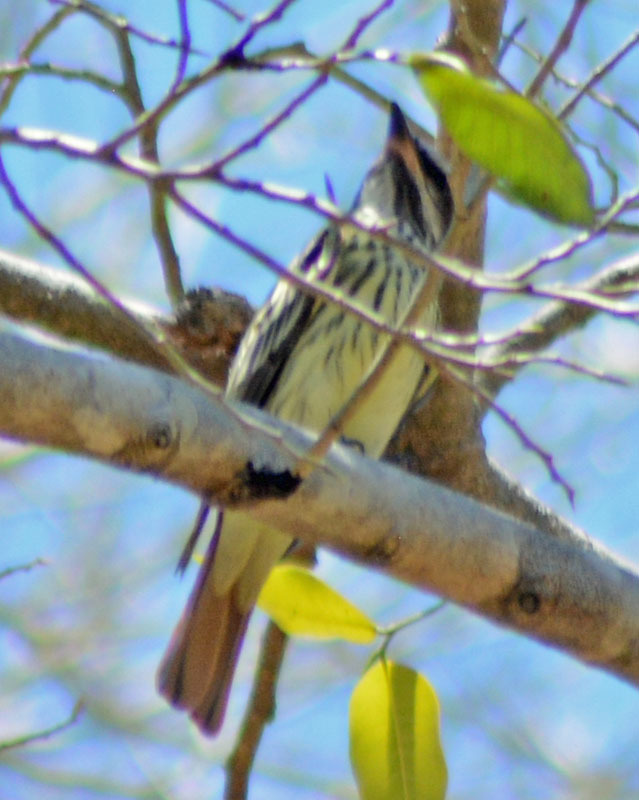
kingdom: Animalia
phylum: Chordata
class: Aves
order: Passeriformes
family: Tyrannidae
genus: Myiodynastes
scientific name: Myiodynastes luteiventris
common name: Sulphur-bellied flycatcher
